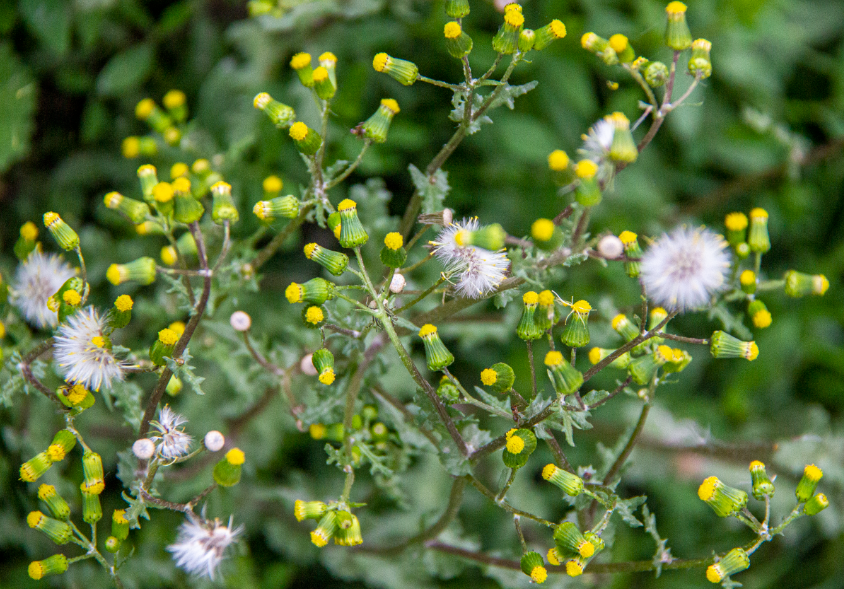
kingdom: Plantae
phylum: Tracheophyta
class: Magnoliopsida
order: Asterales
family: Asteraceae
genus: Senecio
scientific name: Senecio vulgaris
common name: Old-man-in-the-spring
